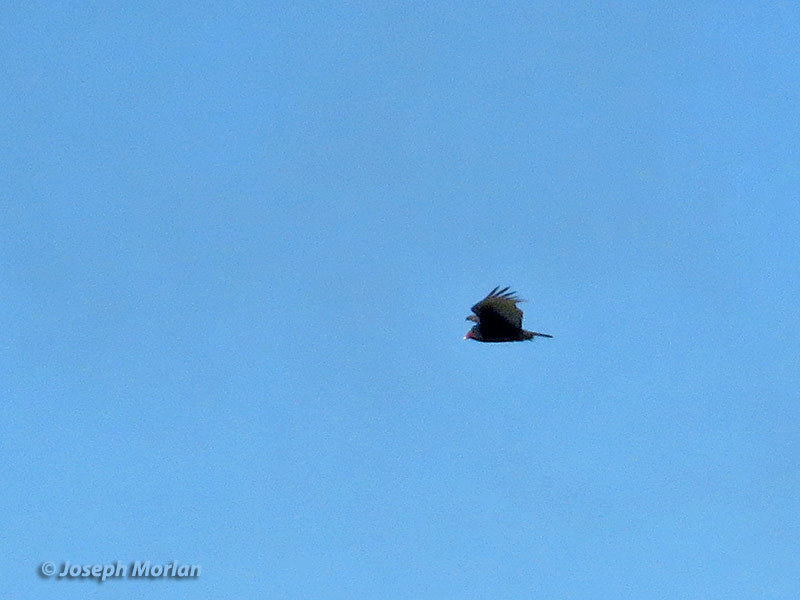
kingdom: Animalia
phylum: Chordata
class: Aves
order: Accipitriformes
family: Cathartidae
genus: Cathartes
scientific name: Cathartes aura
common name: Turkey vulture
